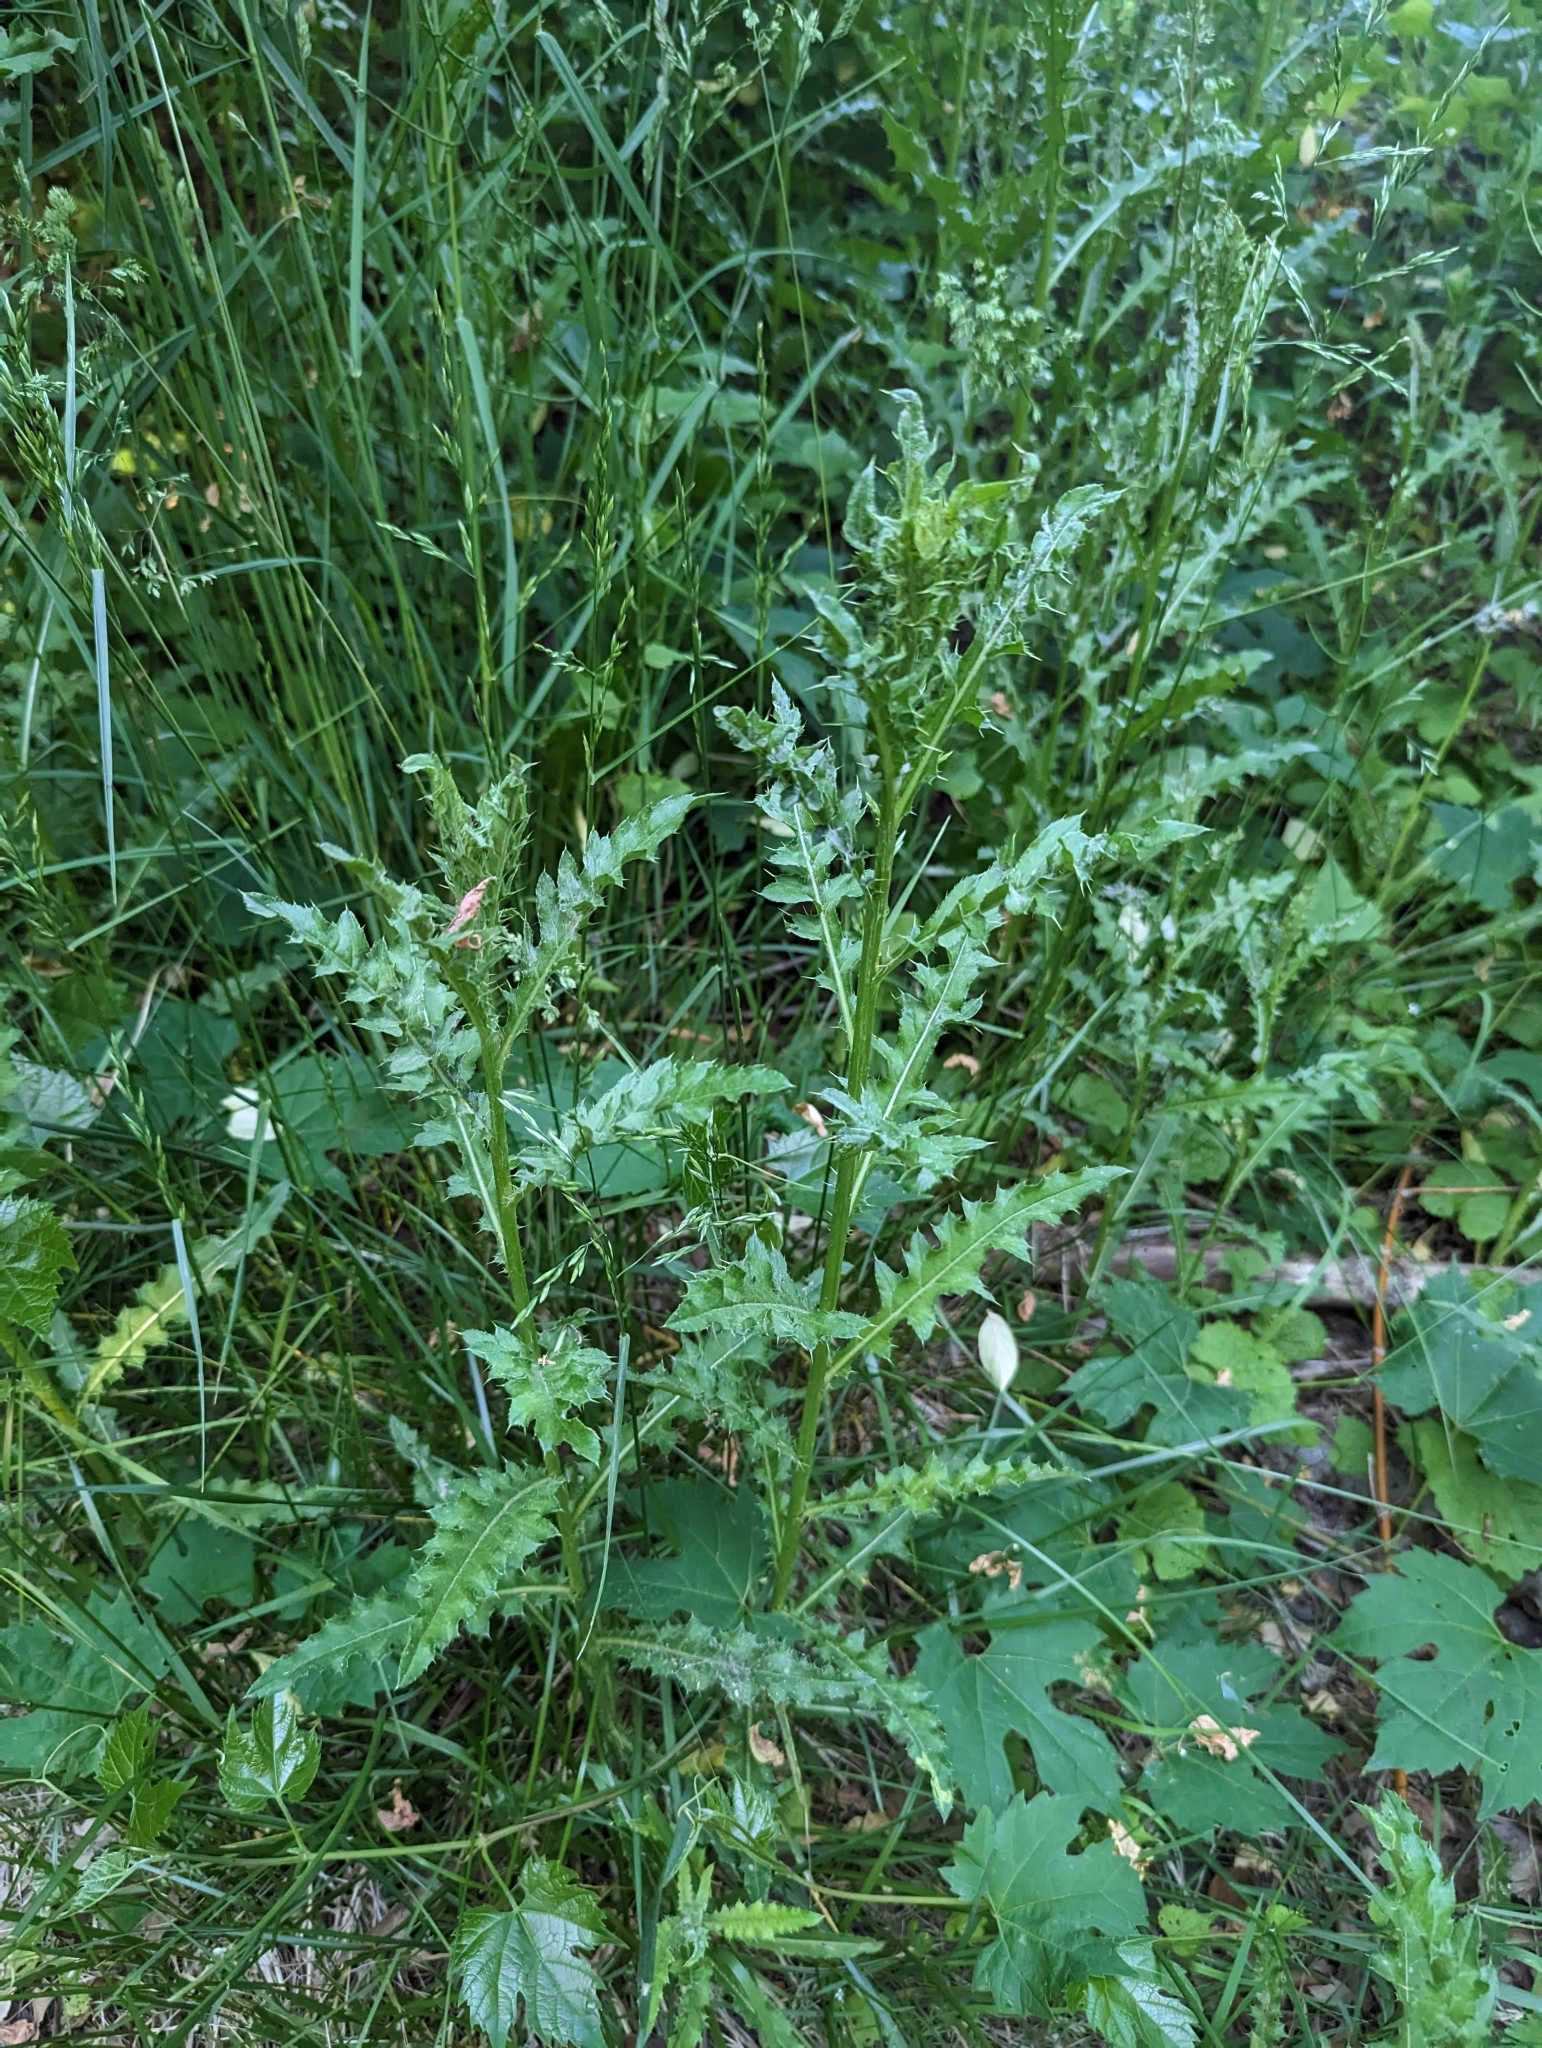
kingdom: Plantae
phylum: Tracheophyta
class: Magnoliopsida
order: Asterales
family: Asteraceae
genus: Cirsium
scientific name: Cirsium arvense
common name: Creeping thistle
